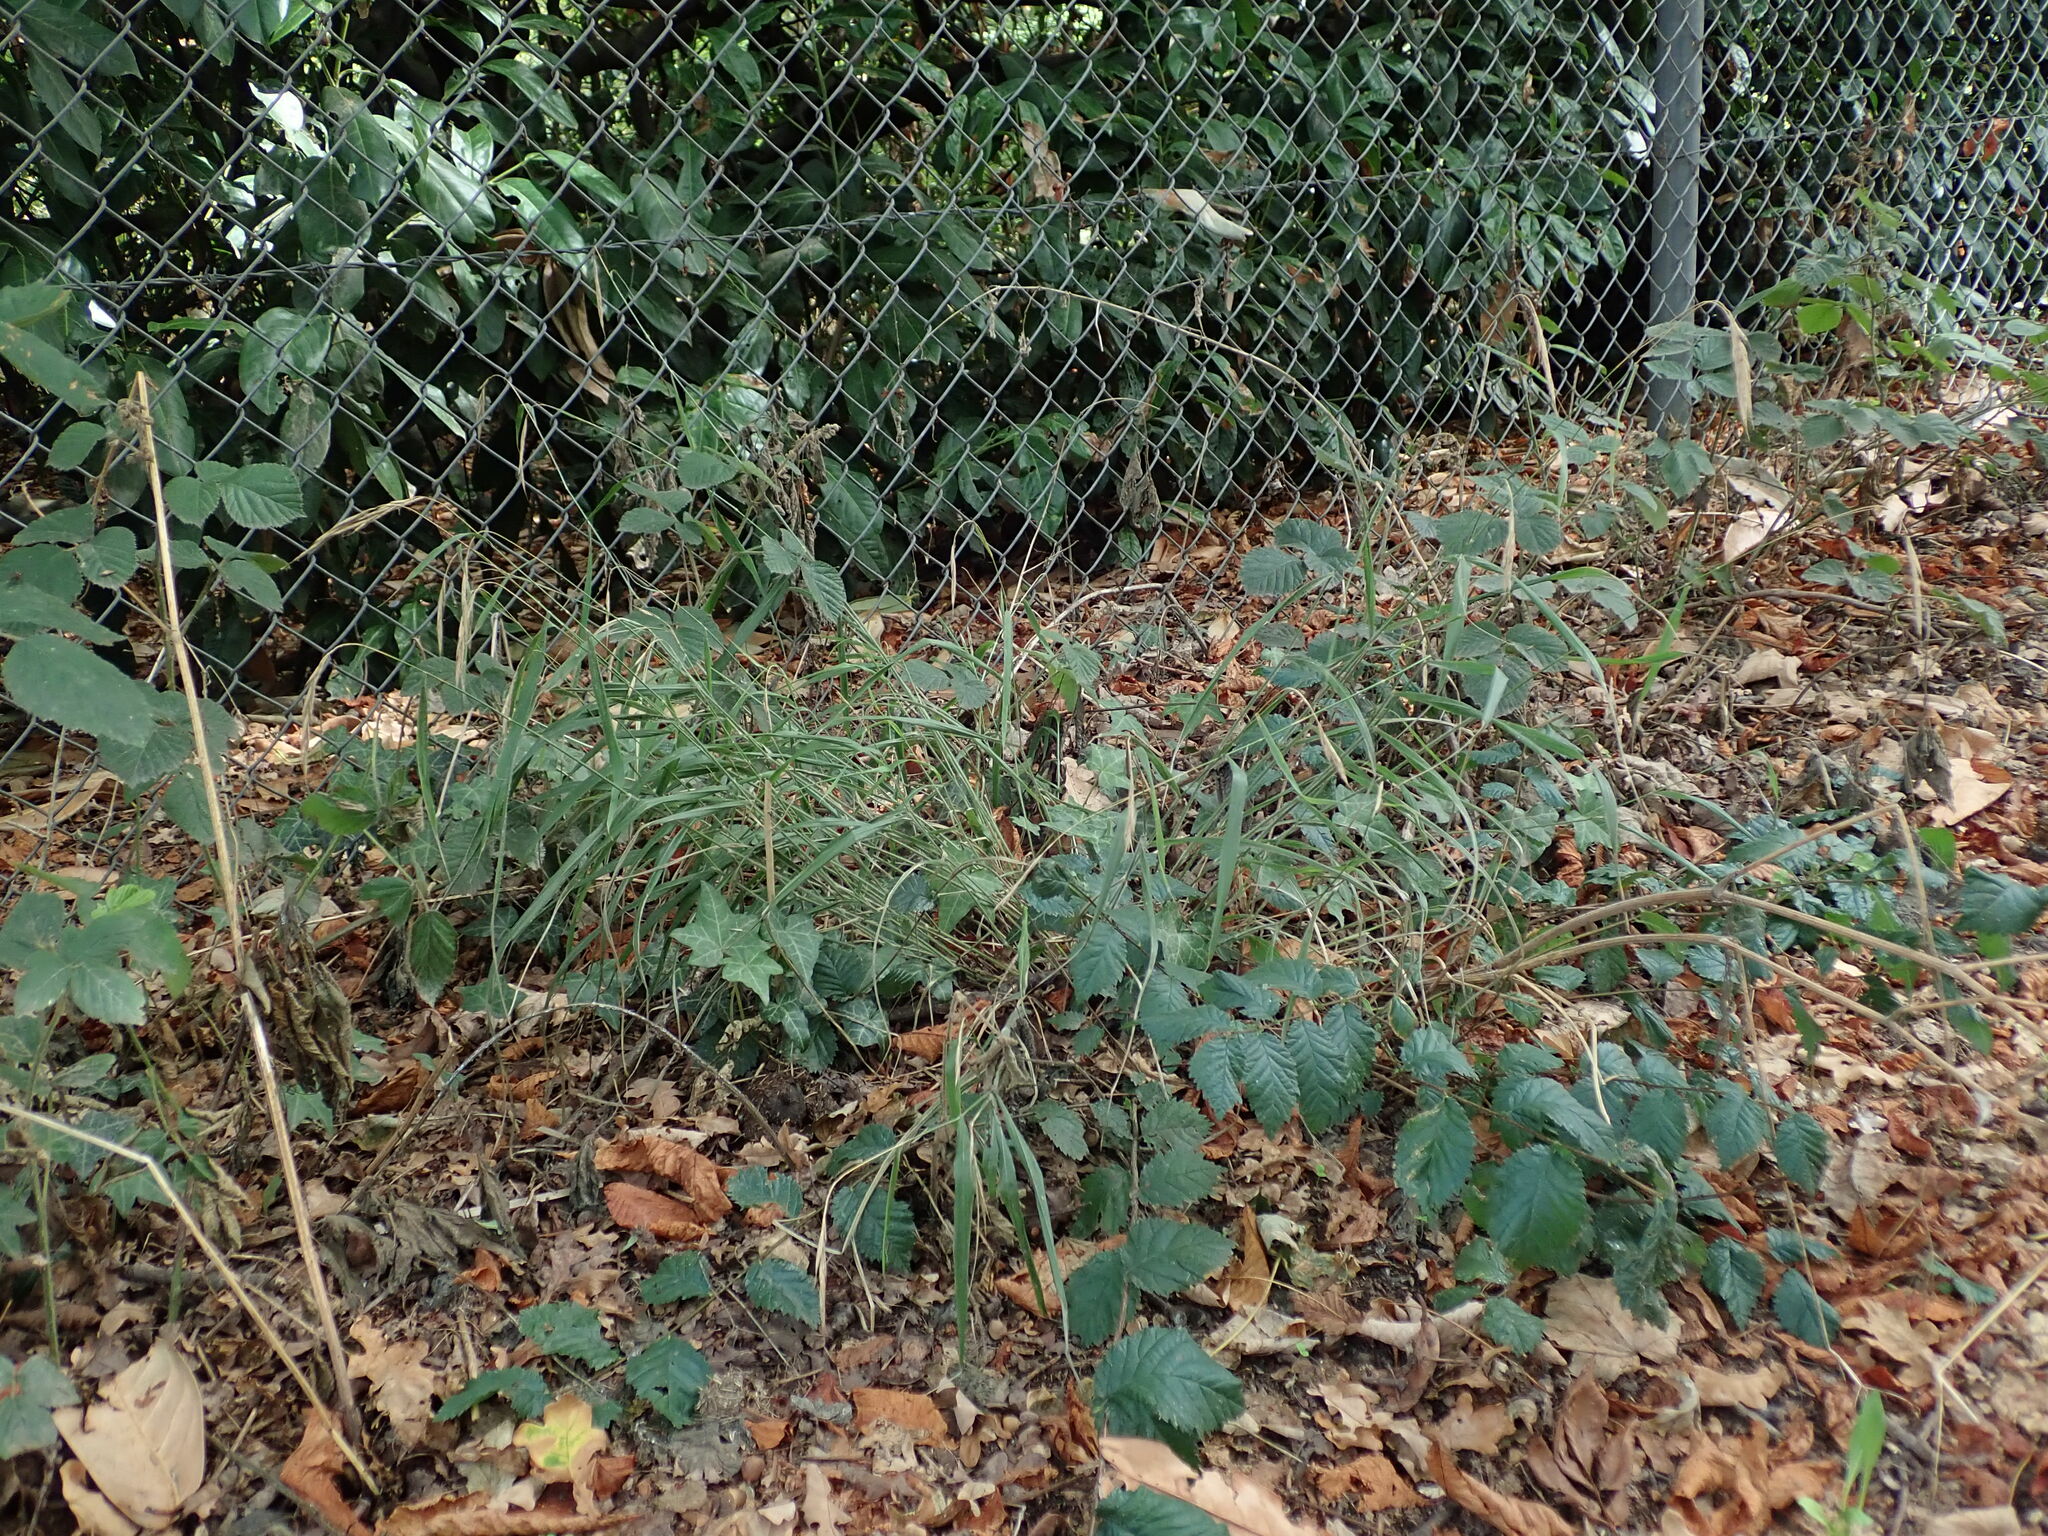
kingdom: Plantae
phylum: Tracheophyta
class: Liliopsida
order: Poales
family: Poaceae
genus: Brachypodium
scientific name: Brachypodium sylvaticum
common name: False-brome
